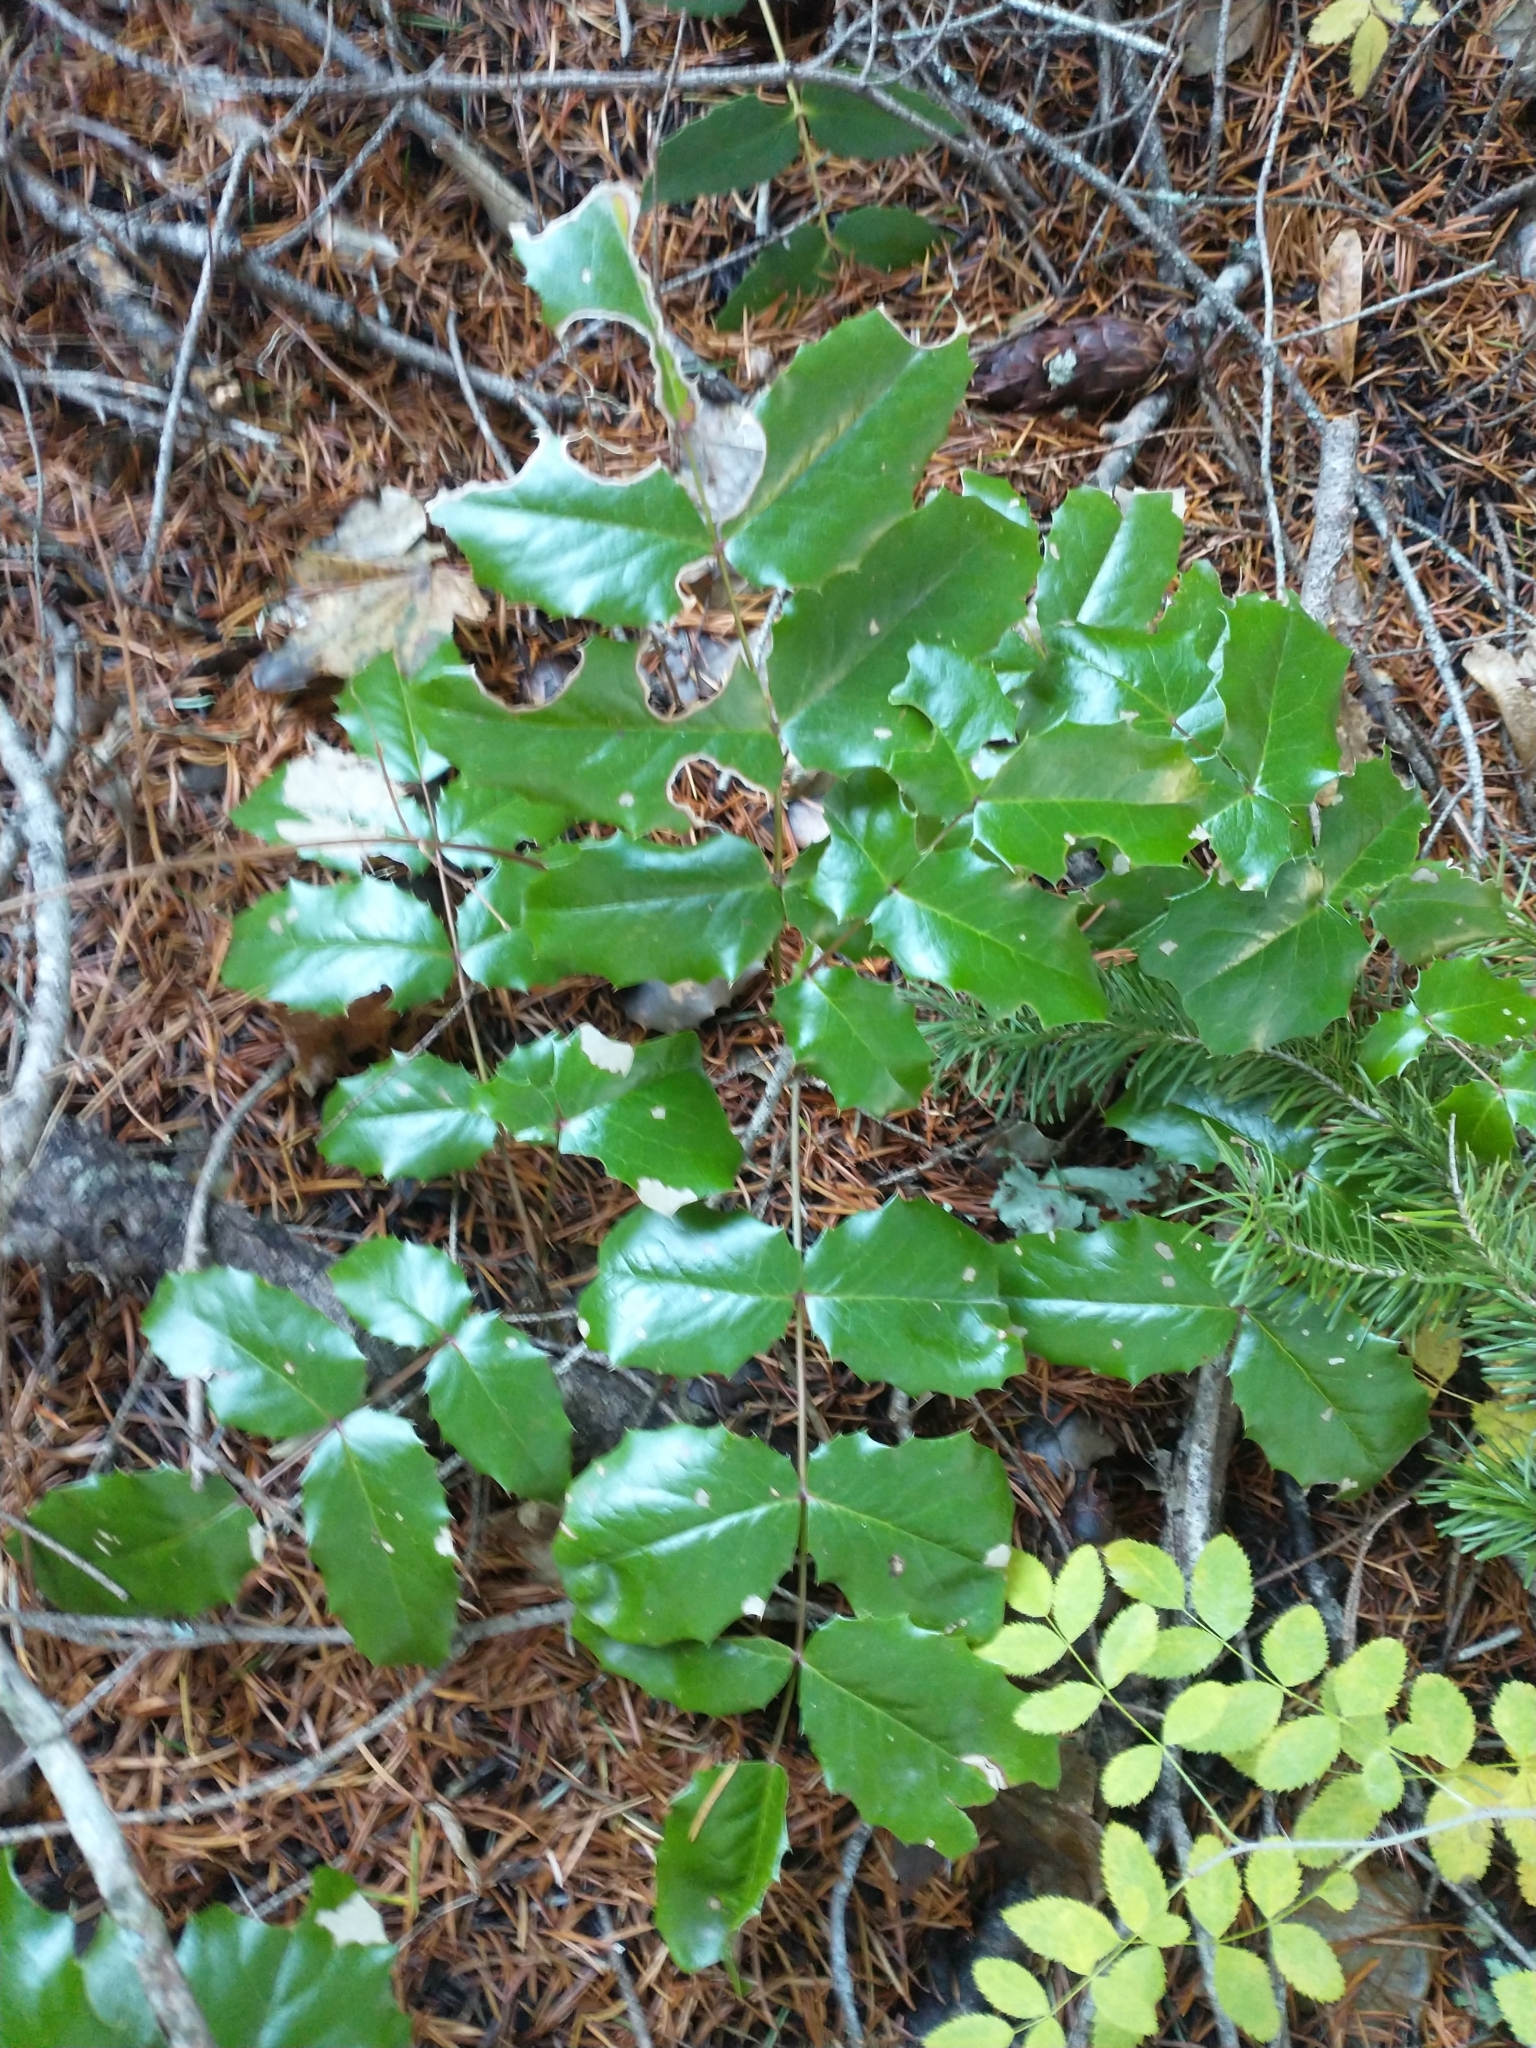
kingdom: Plantae
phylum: Tracheophyta
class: Magnoliopsida
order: Ranunculales
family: Berberidaceae
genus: Mahonia
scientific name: Mahonia aquifolium
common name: Oregon-grape
